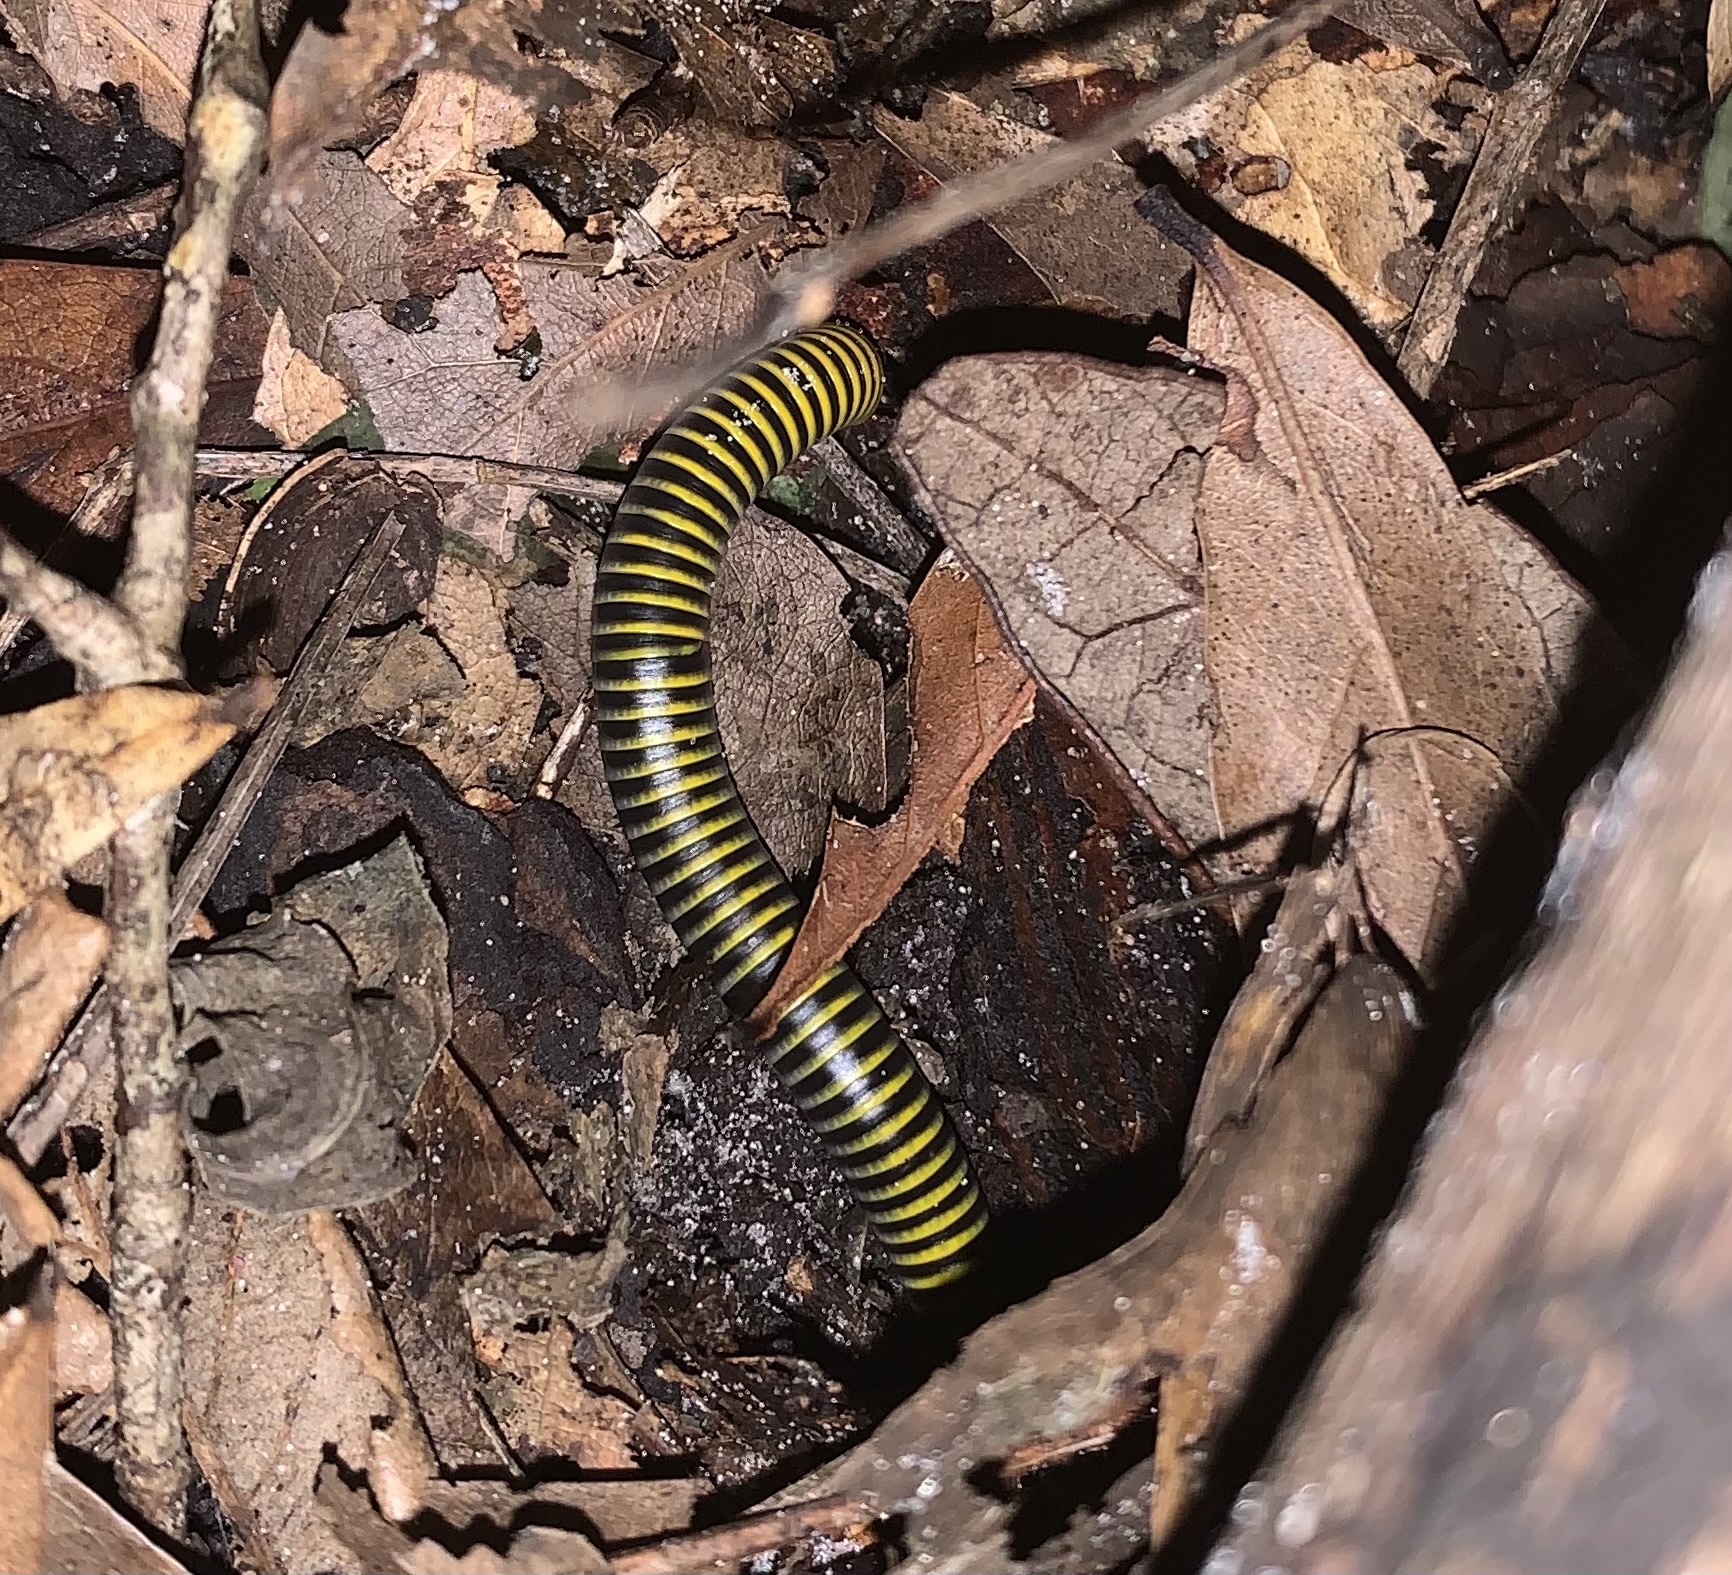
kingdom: Animalia
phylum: Arthropoda
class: Diplopoda
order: Spirobolida
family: Rhinocricidae
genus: Anadenobolus
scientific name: Anadenobolus monilicornis
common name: Caribbean millipede
